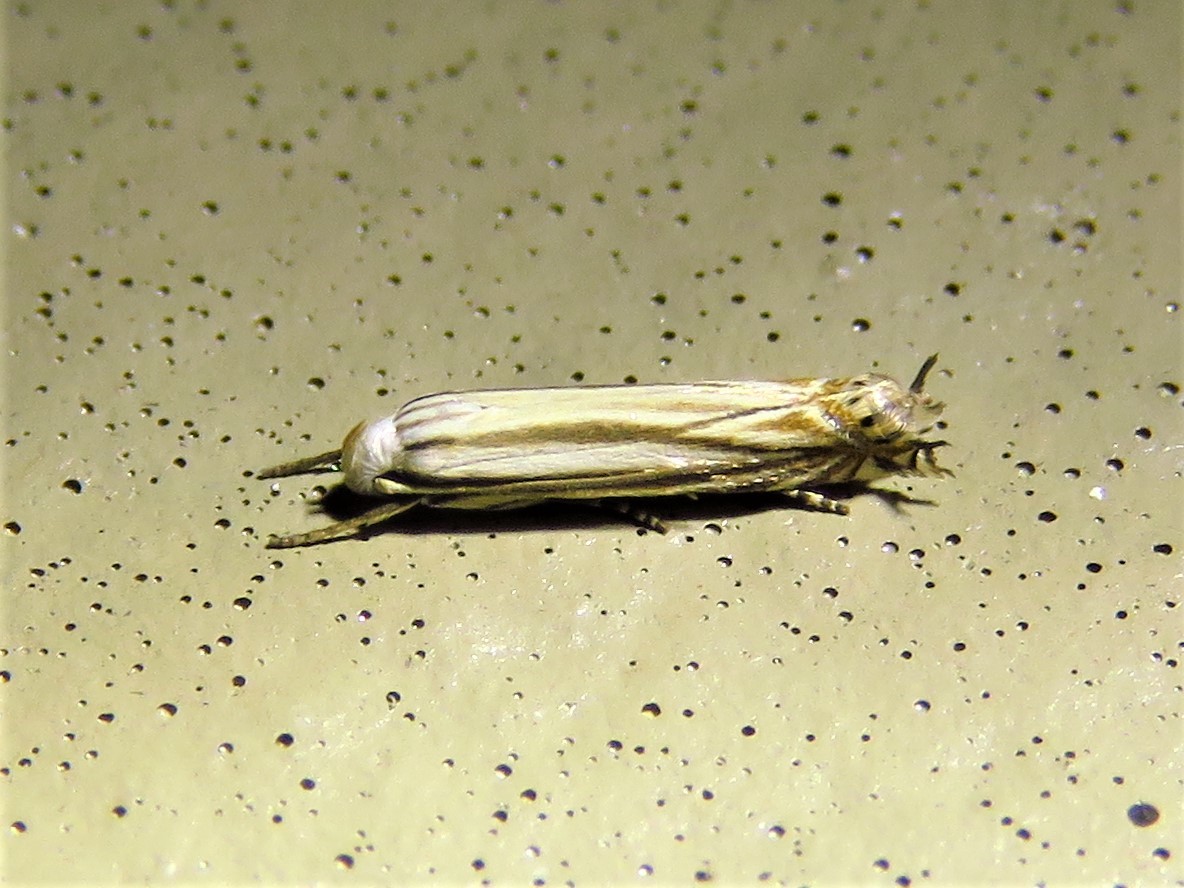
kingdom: Animalia
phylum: Arthropoda
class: Insecta
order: Lepidoptera
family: Gelechiidae
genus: Polyhymno
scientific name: Polyhymno luteostrigella
